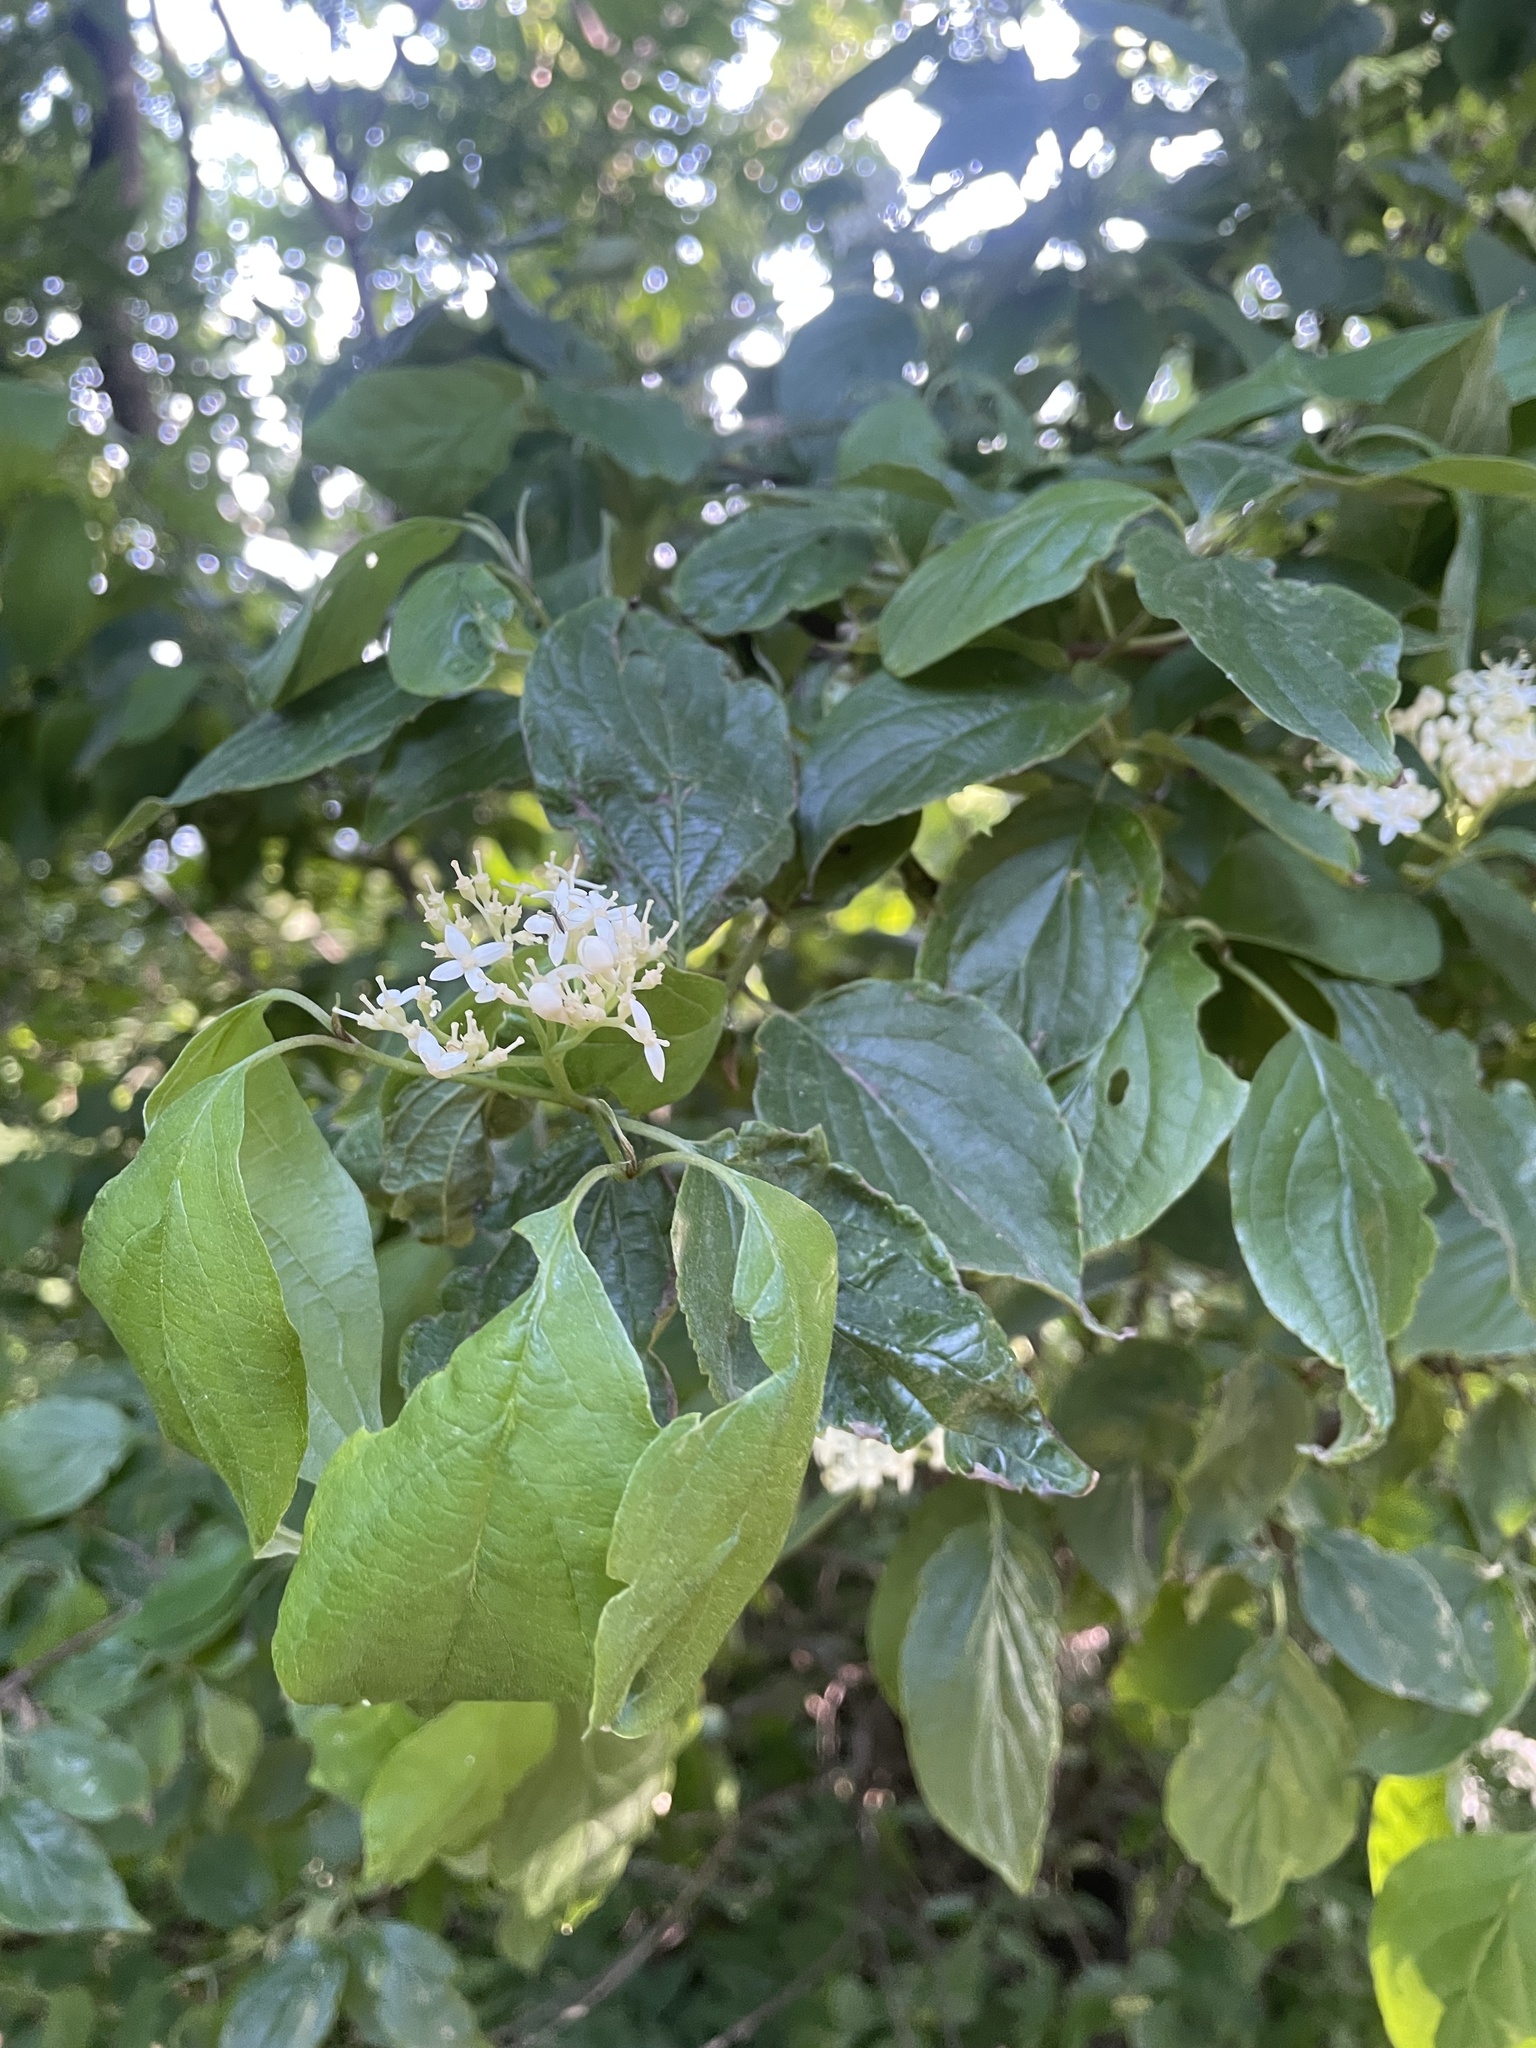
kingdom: Plantae
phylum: Tracheophyta
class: Magnoliopsida
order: Cornales
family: Cornaceae
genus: Cornus
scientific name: Cornus drummondii
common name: Rough-leaf dogwood
